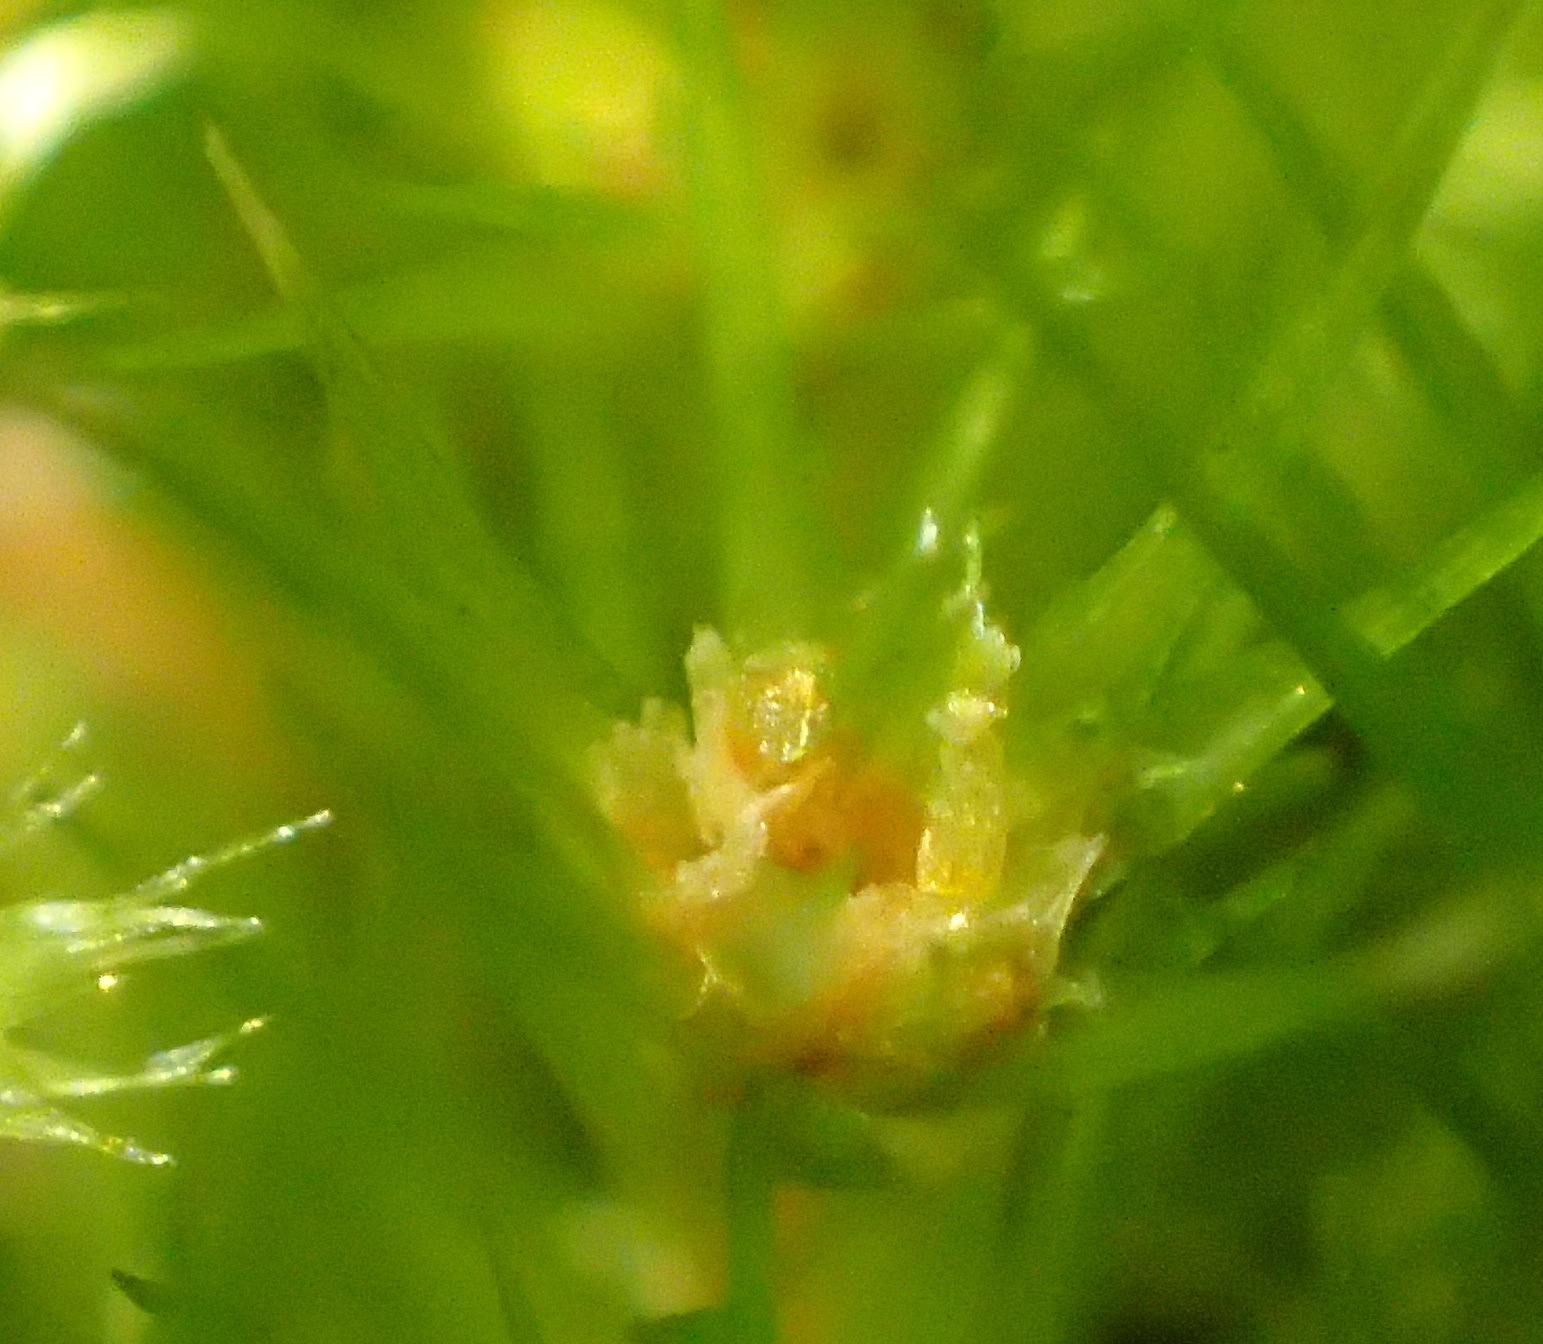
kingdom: Plantae
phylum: Bryophyta
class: Bryopsida
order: Dicranales
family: Leucobryaceae
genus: Campylopus
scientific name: Campylopus arctocarpus
